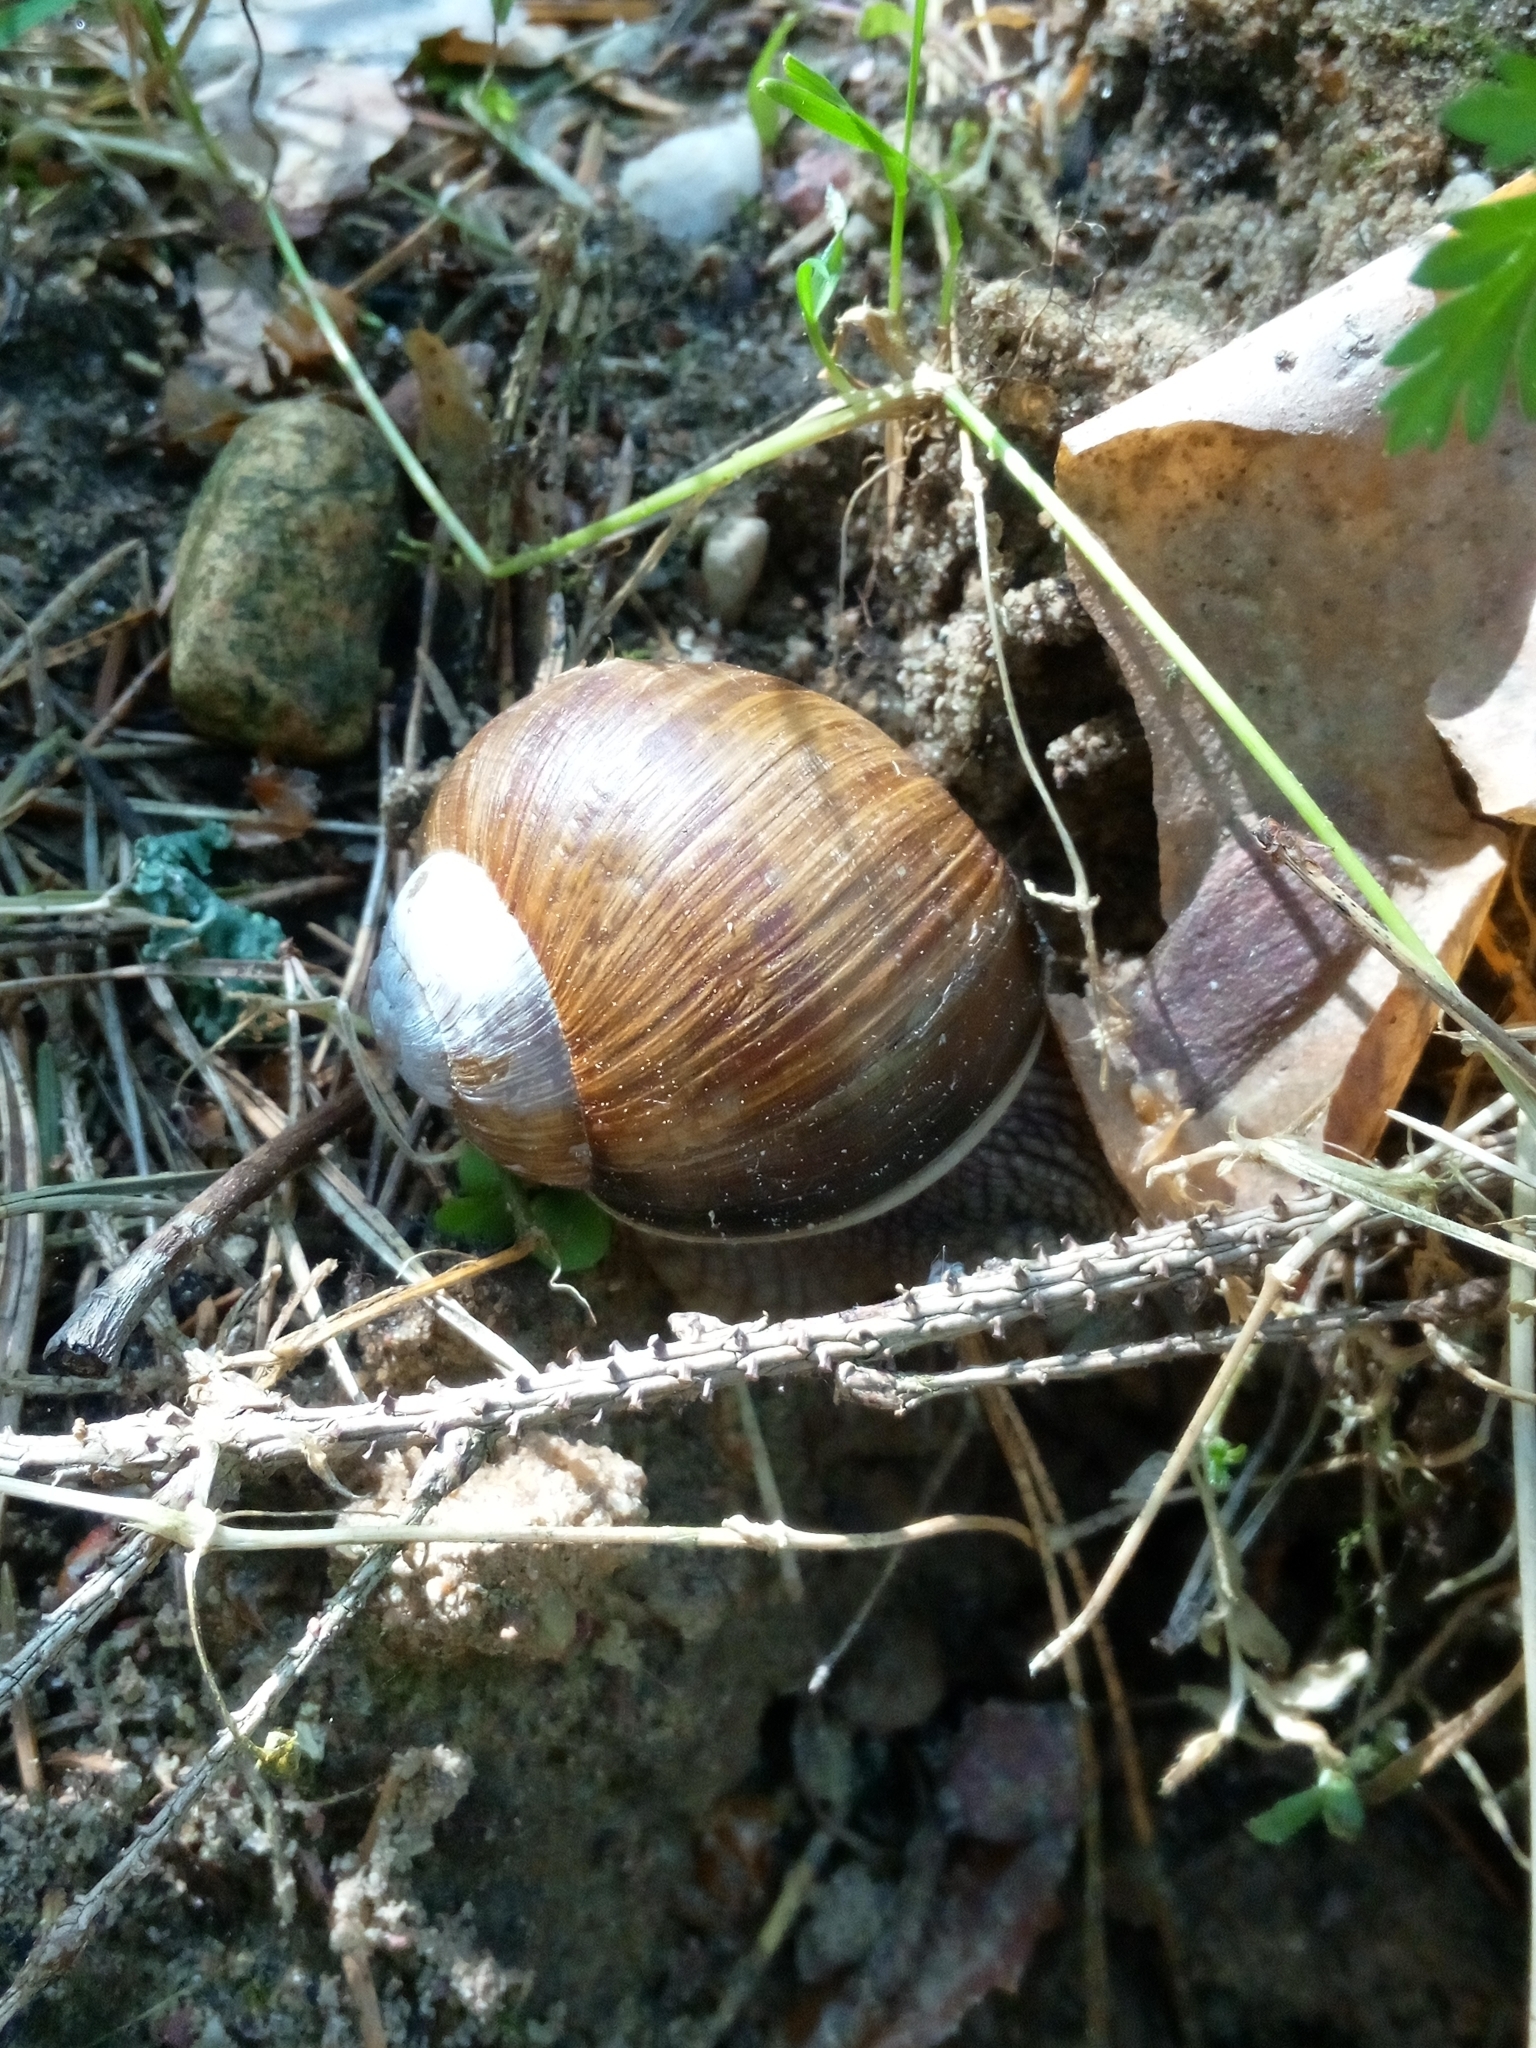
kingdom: Animalia
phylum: Mollusca
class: Gastropoda
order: Stylommatophora
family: Helicidae
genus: Helix
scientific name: Helix pomatia
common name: Roman snail
